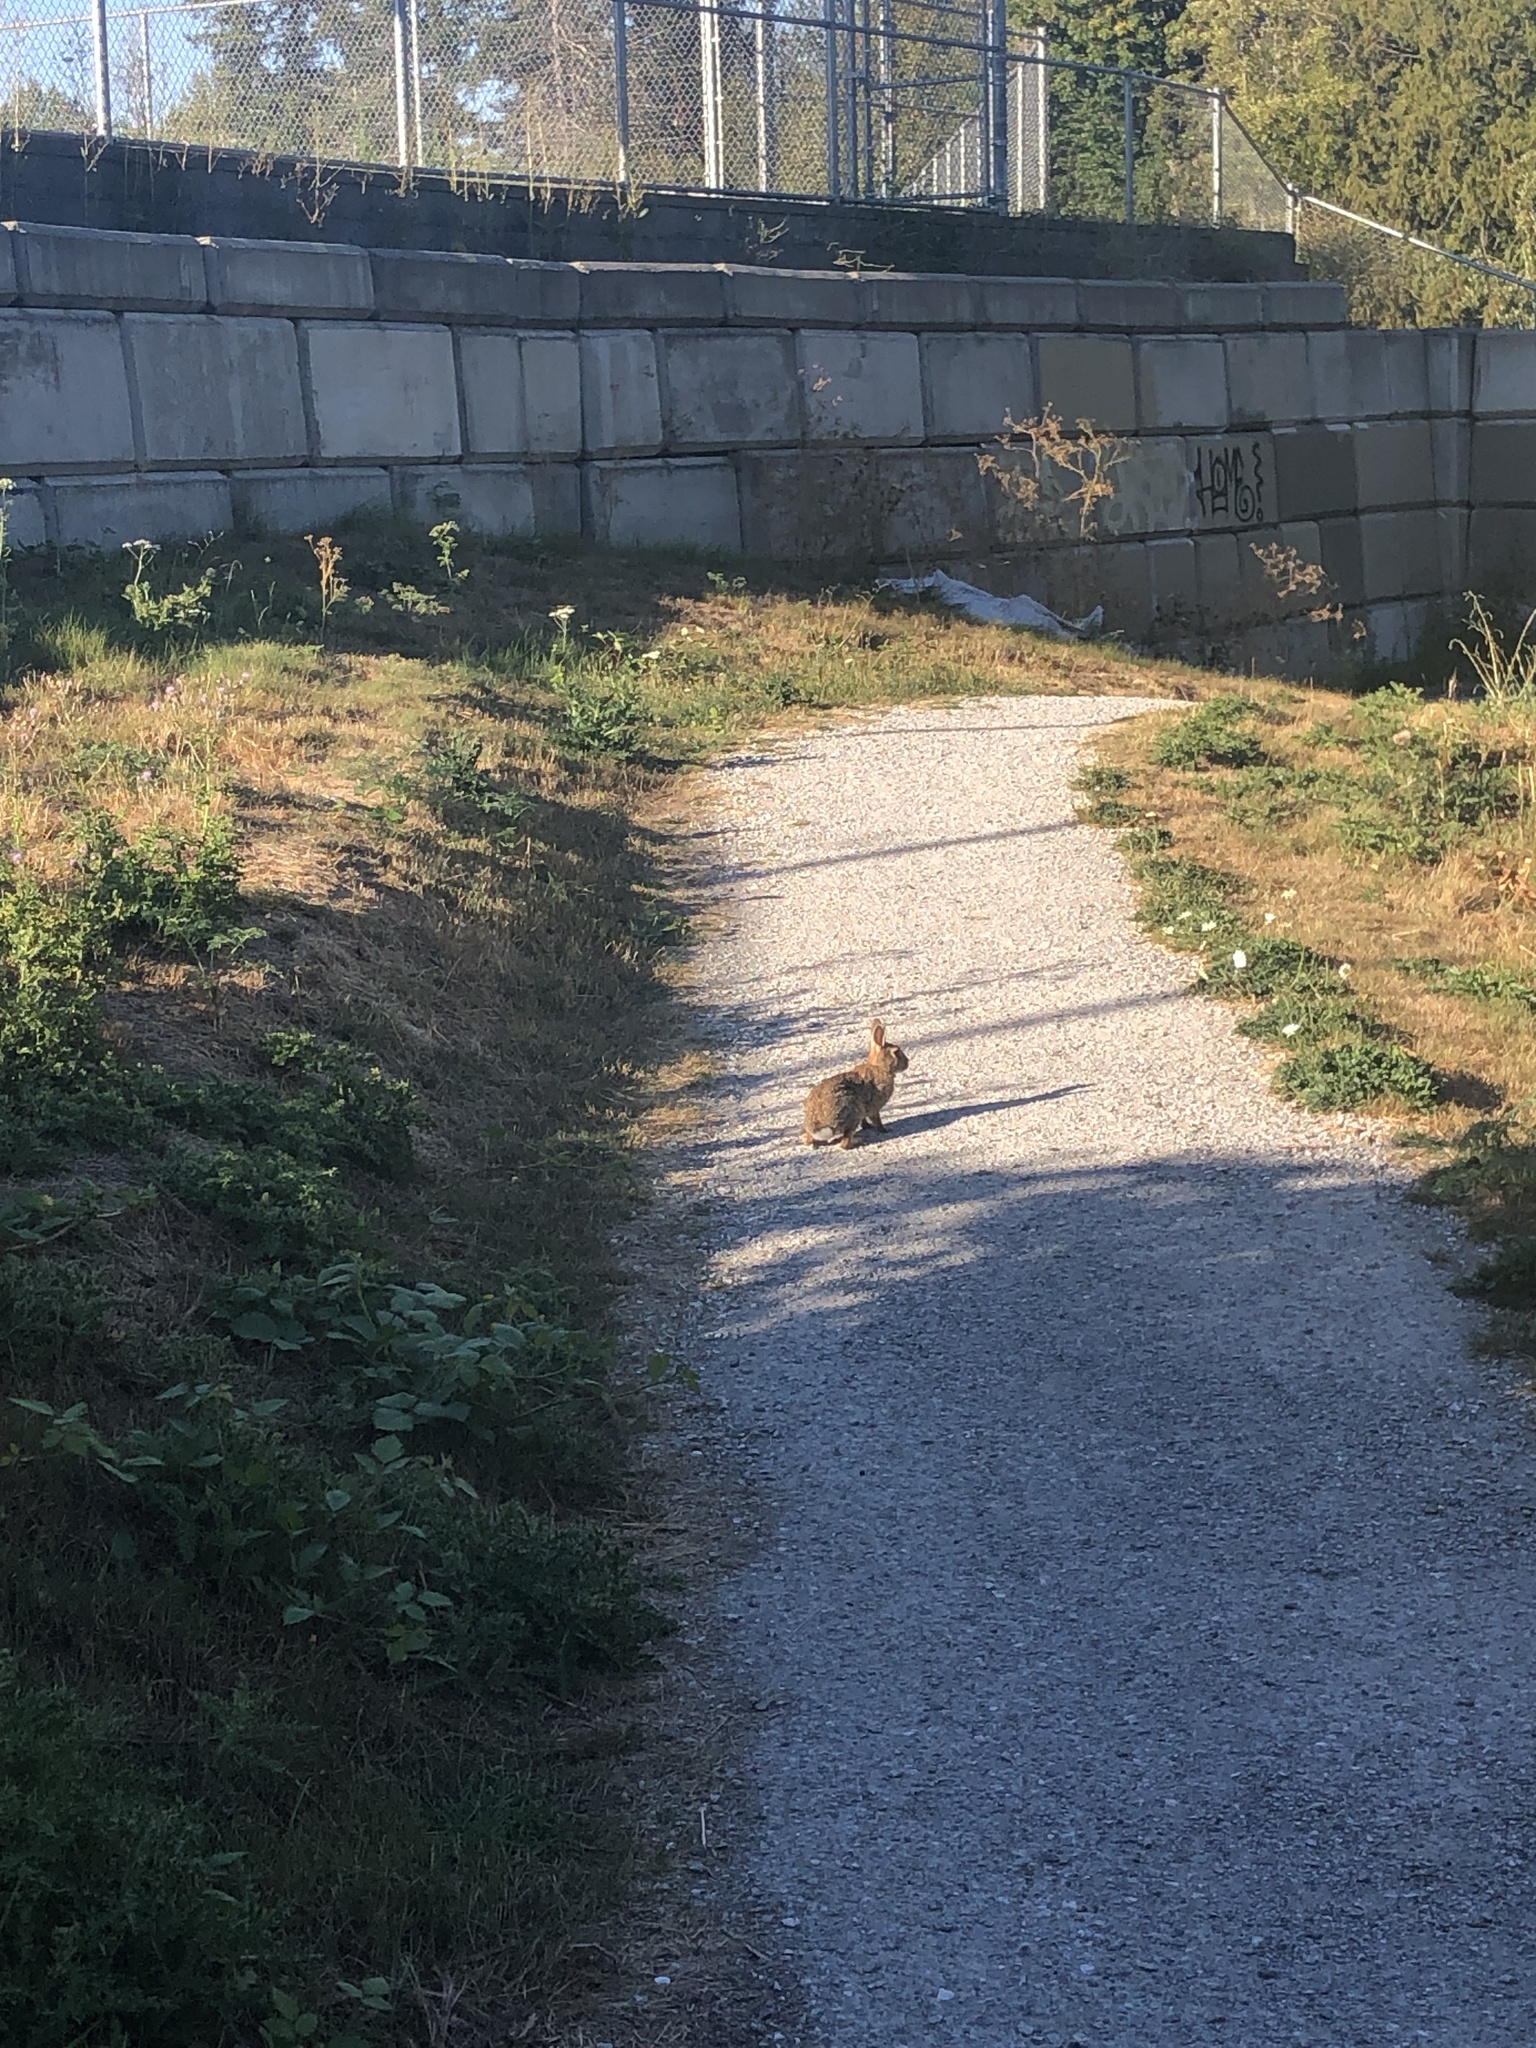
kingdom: Animalia
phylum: Chordata
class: Mammalia
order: Lagomorpha
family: Leporidae
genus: Sylvilagus
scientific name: Sylvilagus floridanus
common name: Eastern cottontail
